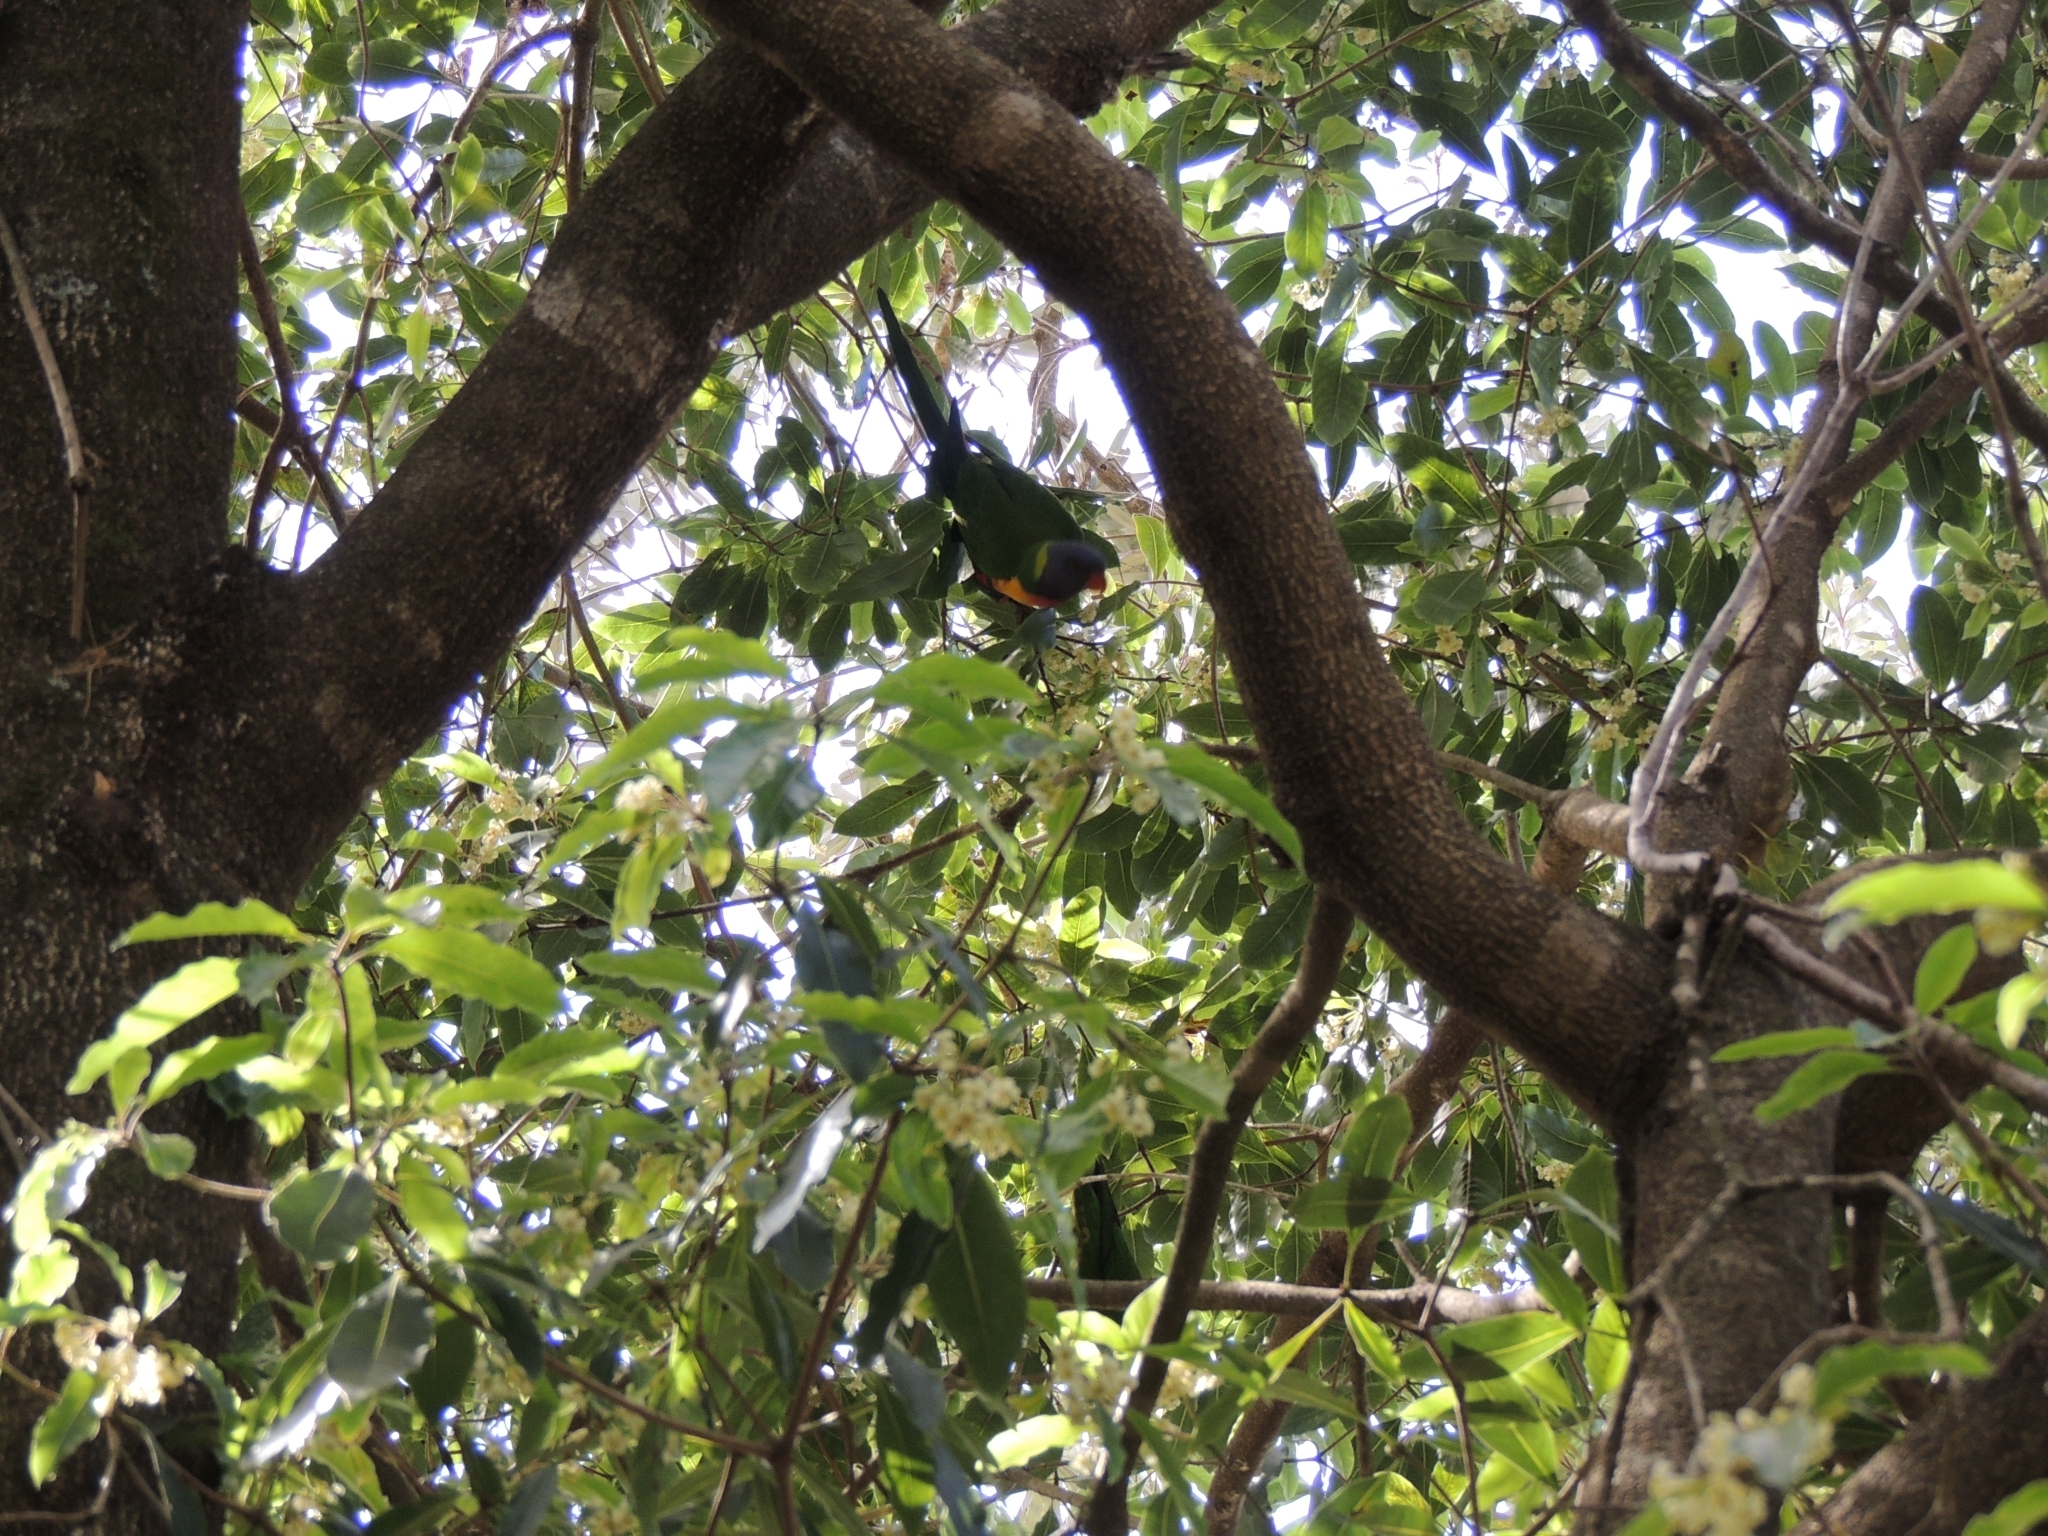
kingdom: Animalia
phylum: Chordata
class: Aves
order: Psittaciformes
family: Psittacidae
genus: Trichoglossus
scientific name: Trichoglossus haematodus
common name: Coconut lorikeet
